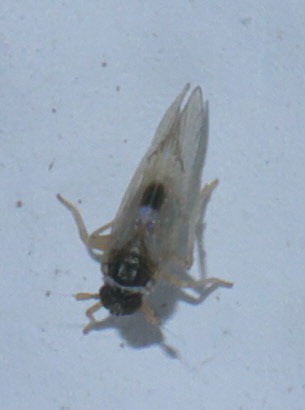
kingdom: Animalia
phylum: Arthropoda
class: Insecta
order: Hemiptera
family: Delphacidae
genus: Chionomus
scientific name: Chionomus
